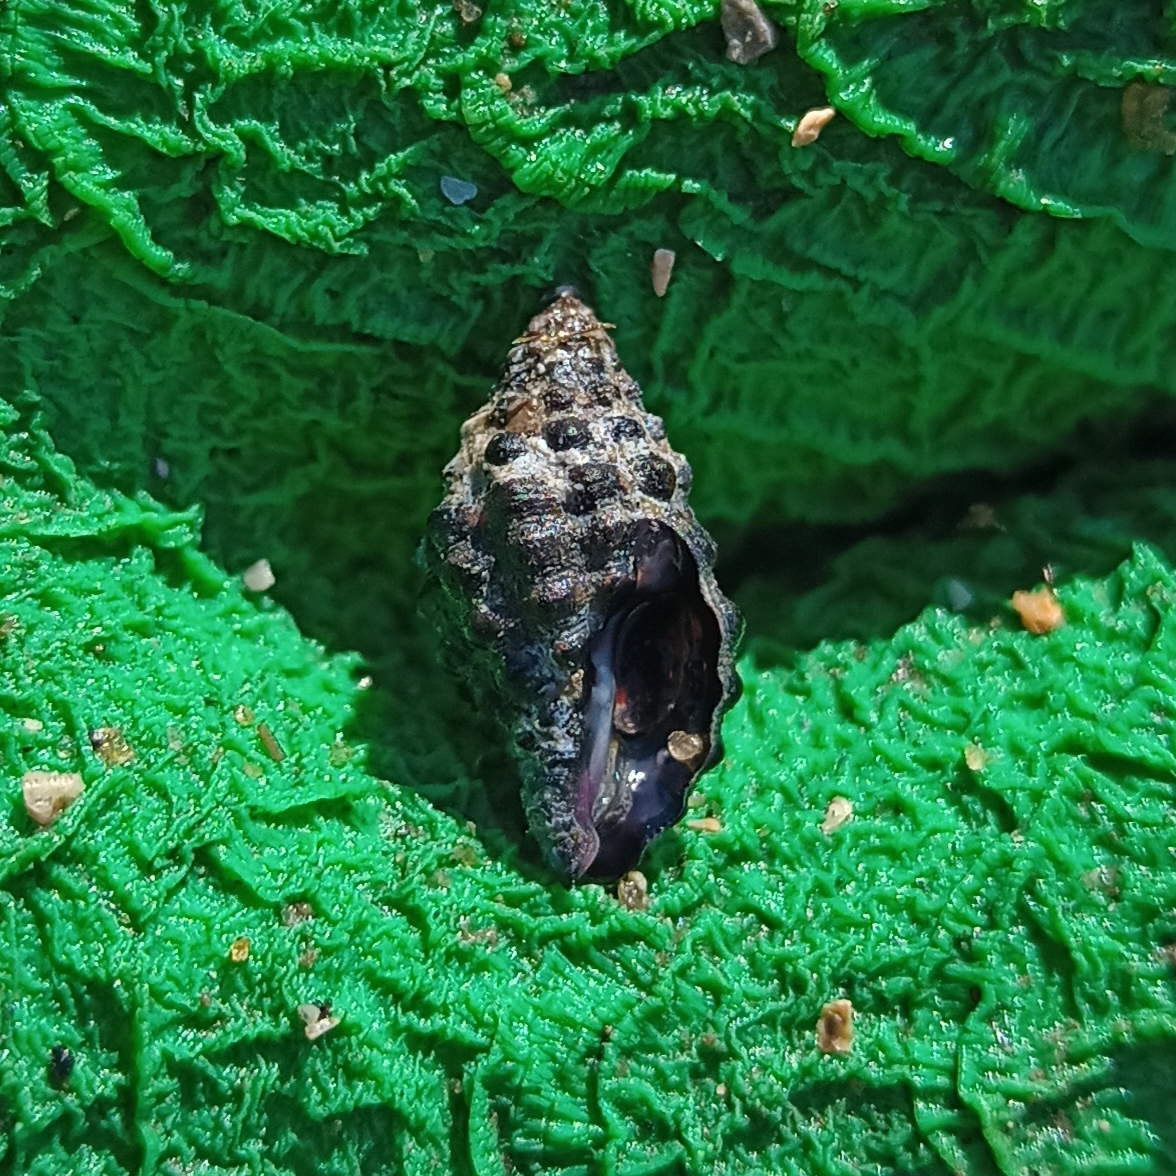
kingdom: Animalia
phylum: Mollusca
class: Gastropoda
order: Neogastropoda
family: Muricidae
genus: Claremontiella
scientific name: Claremontiella nodulosa
